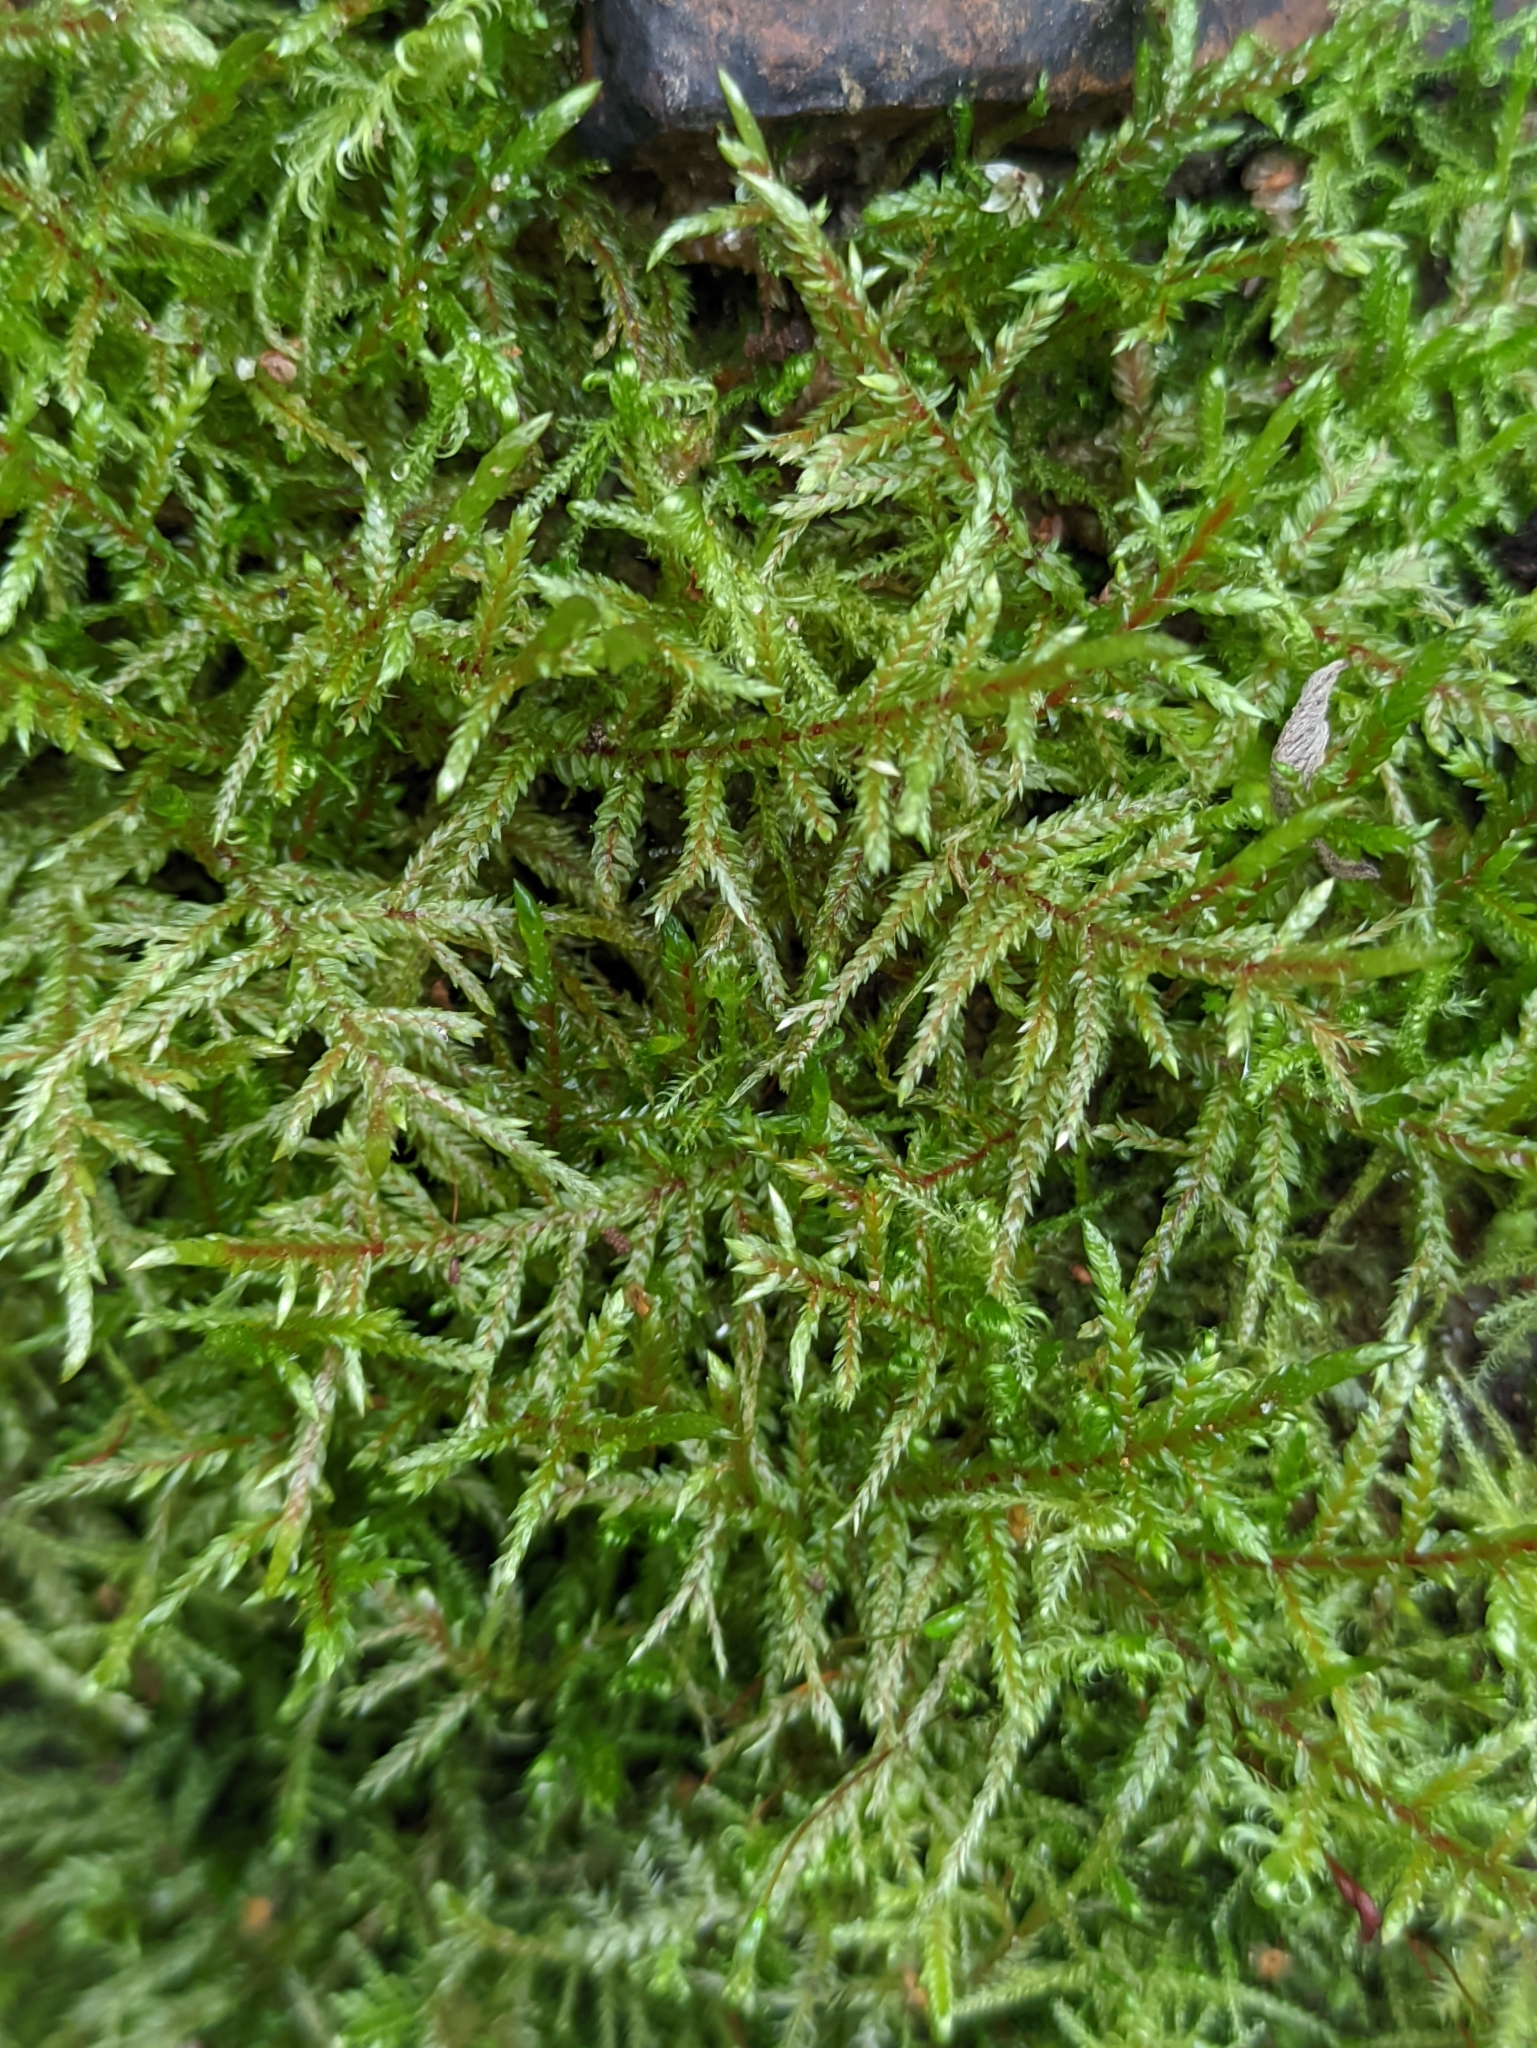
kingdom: Plantae
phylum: Bryophyta
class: Bryopsida
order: Hypnales
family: Hylocomiaceae
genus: Pleurozium
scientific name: Pleurozium schreberi
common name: Red-stemmed feather moss
